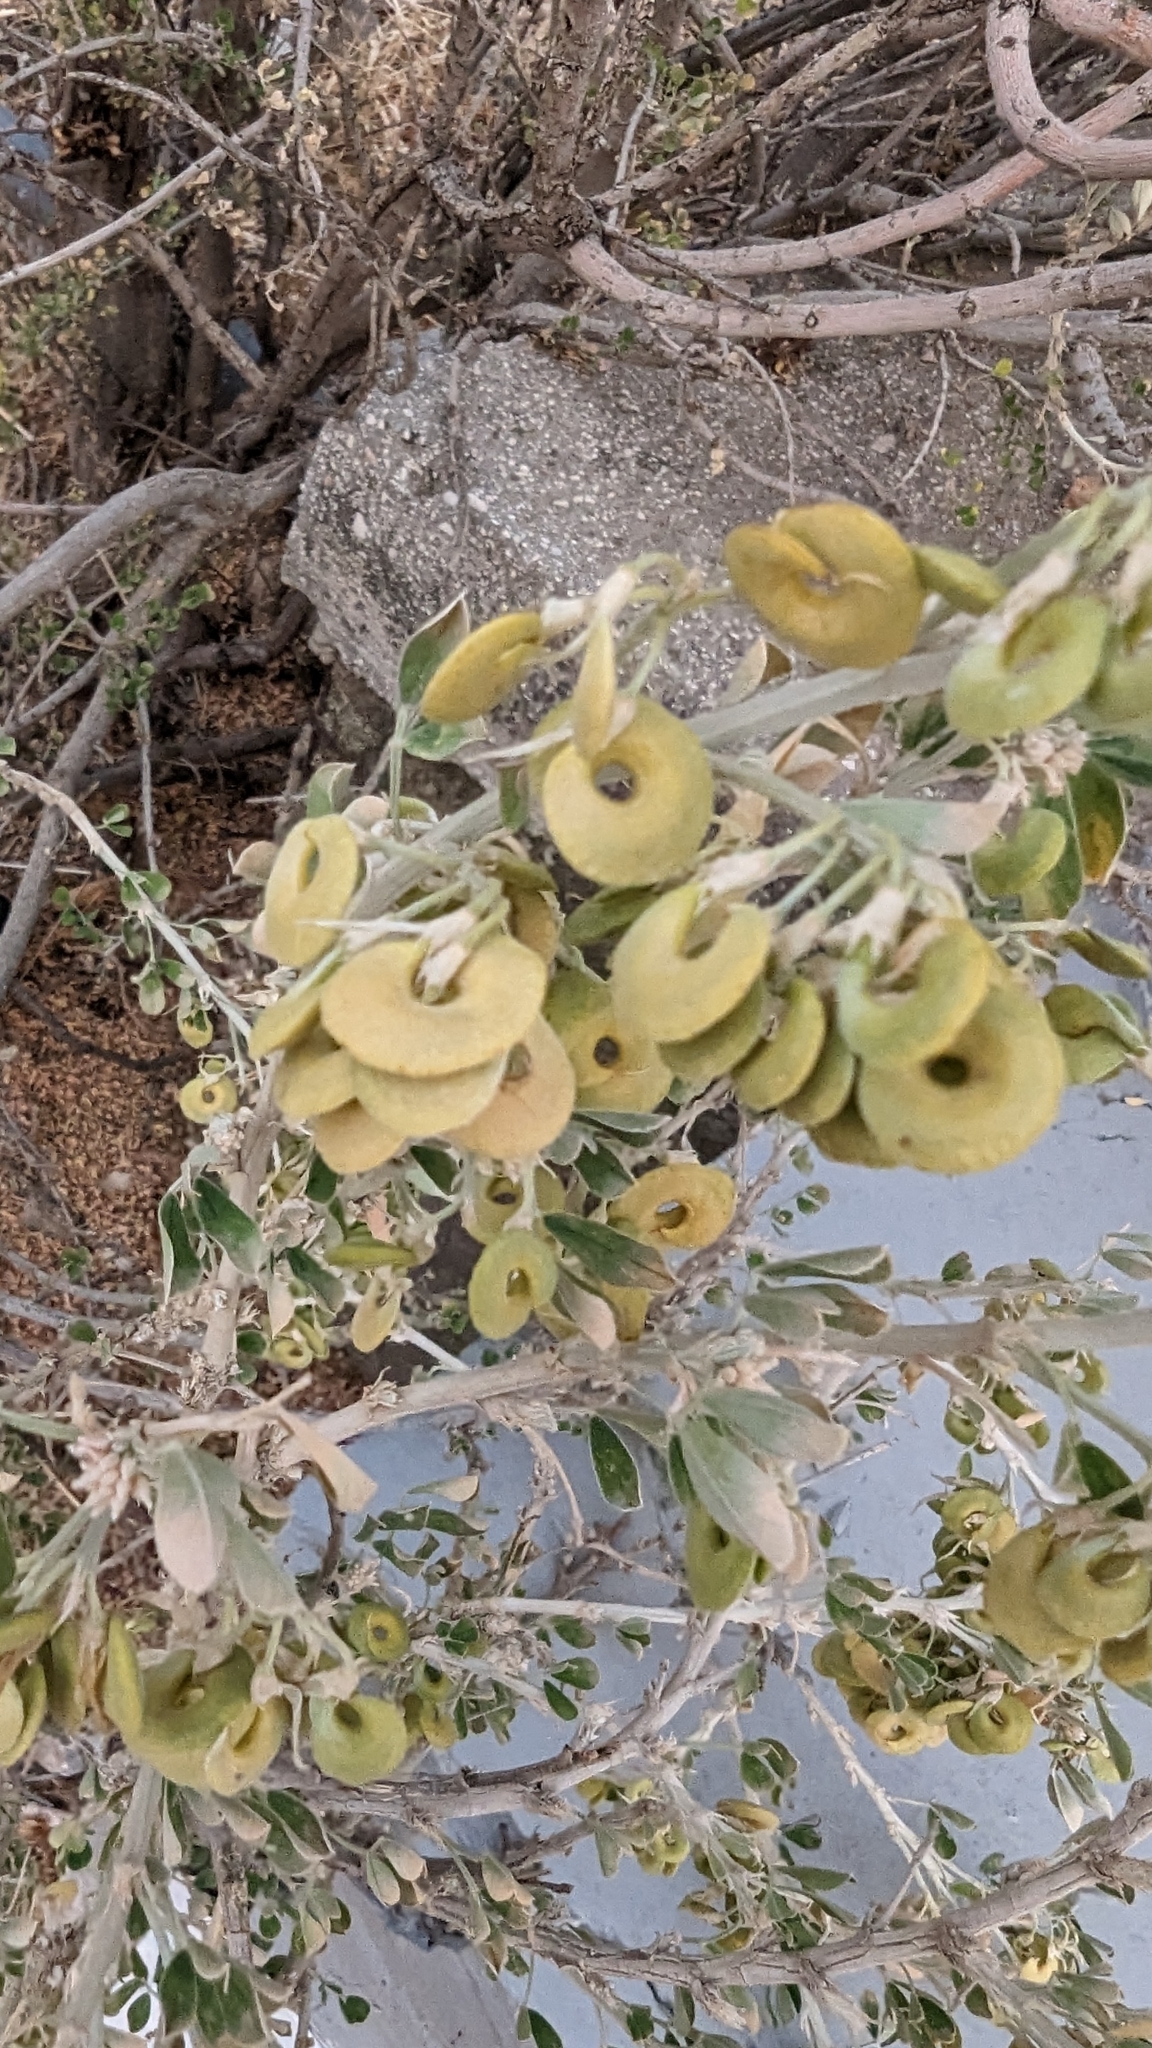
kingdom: Plantae
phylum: Tracheophyta
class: Magnoliopsida
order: Fabales
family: Fabaceae
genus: Medicago
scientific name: Medicago arborea
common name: Moon trefoil
